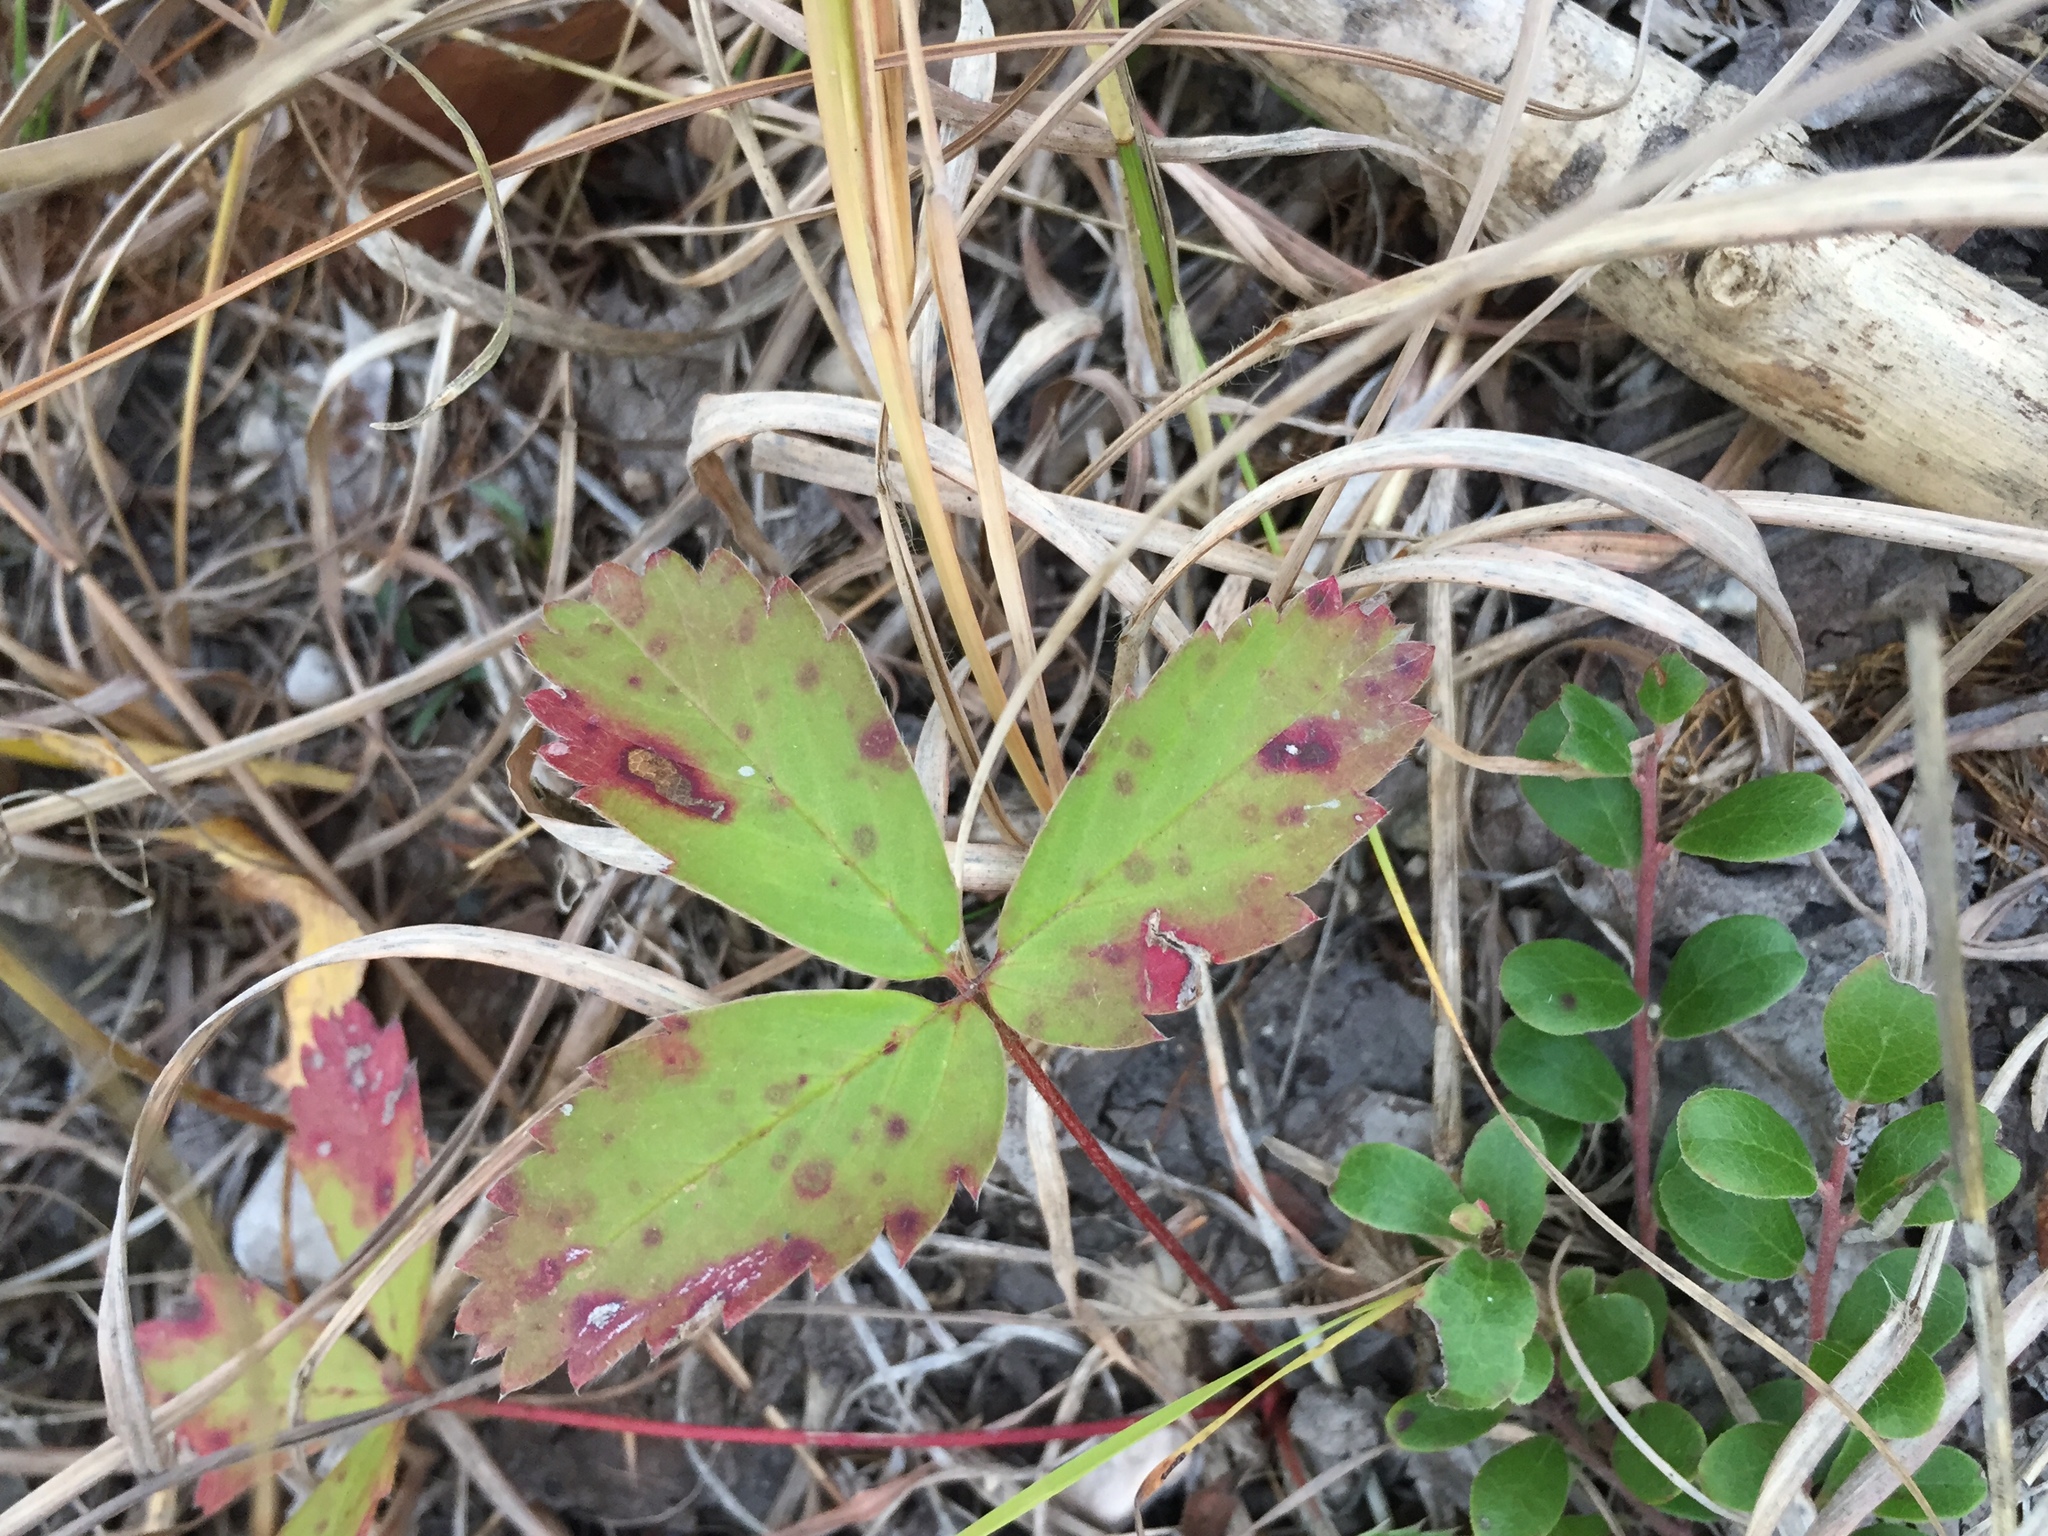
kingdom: Plantae
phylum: Tracheophyta
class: Magnoliopsida
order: Rosales
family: Rosaceae
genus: Fragaria
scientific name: Fragaria virginiana
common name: Thickleaved wild strawberry
